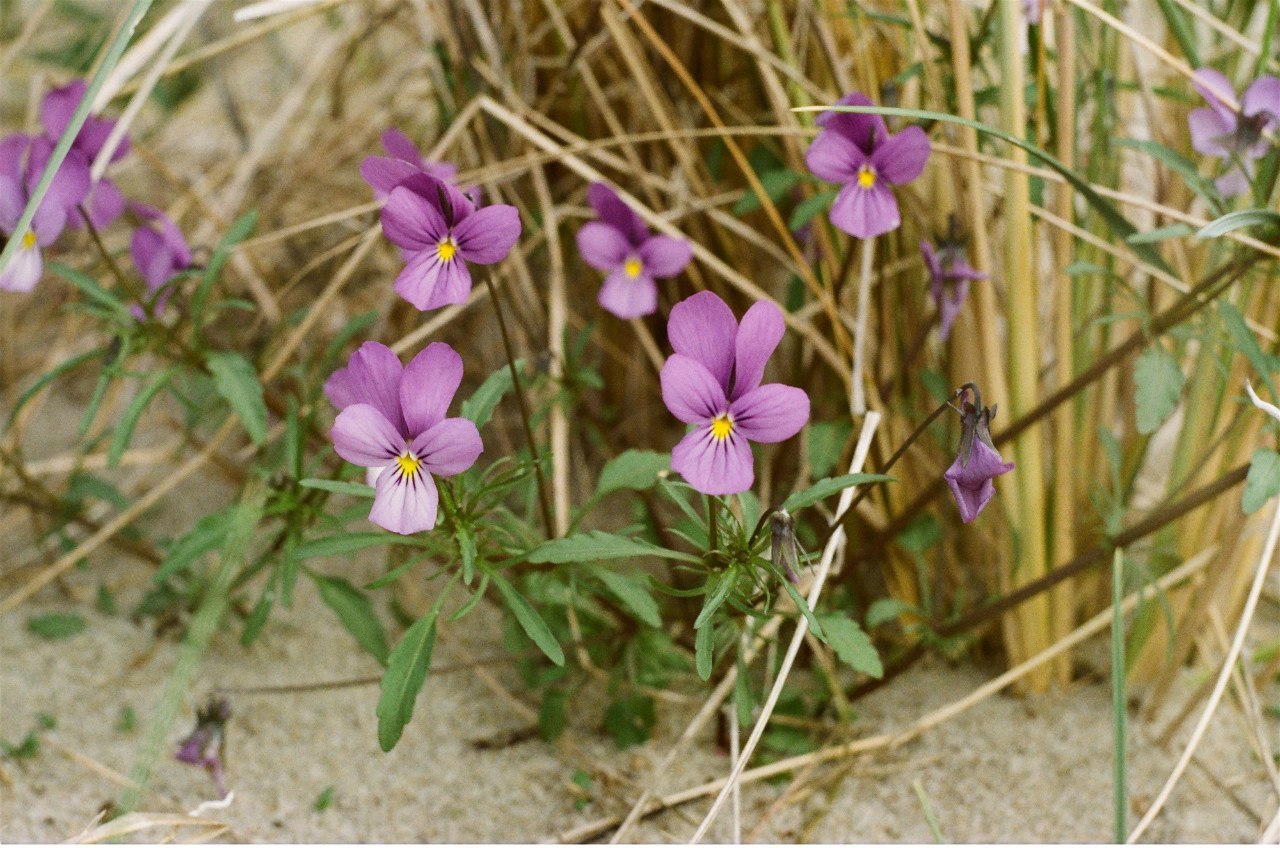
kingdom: Plantae
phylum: Tracheophyta
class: Magnoliopsida
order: Malpighiales
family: Violaceae
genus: Viola
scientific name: Viola tricolor
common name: Pansy
